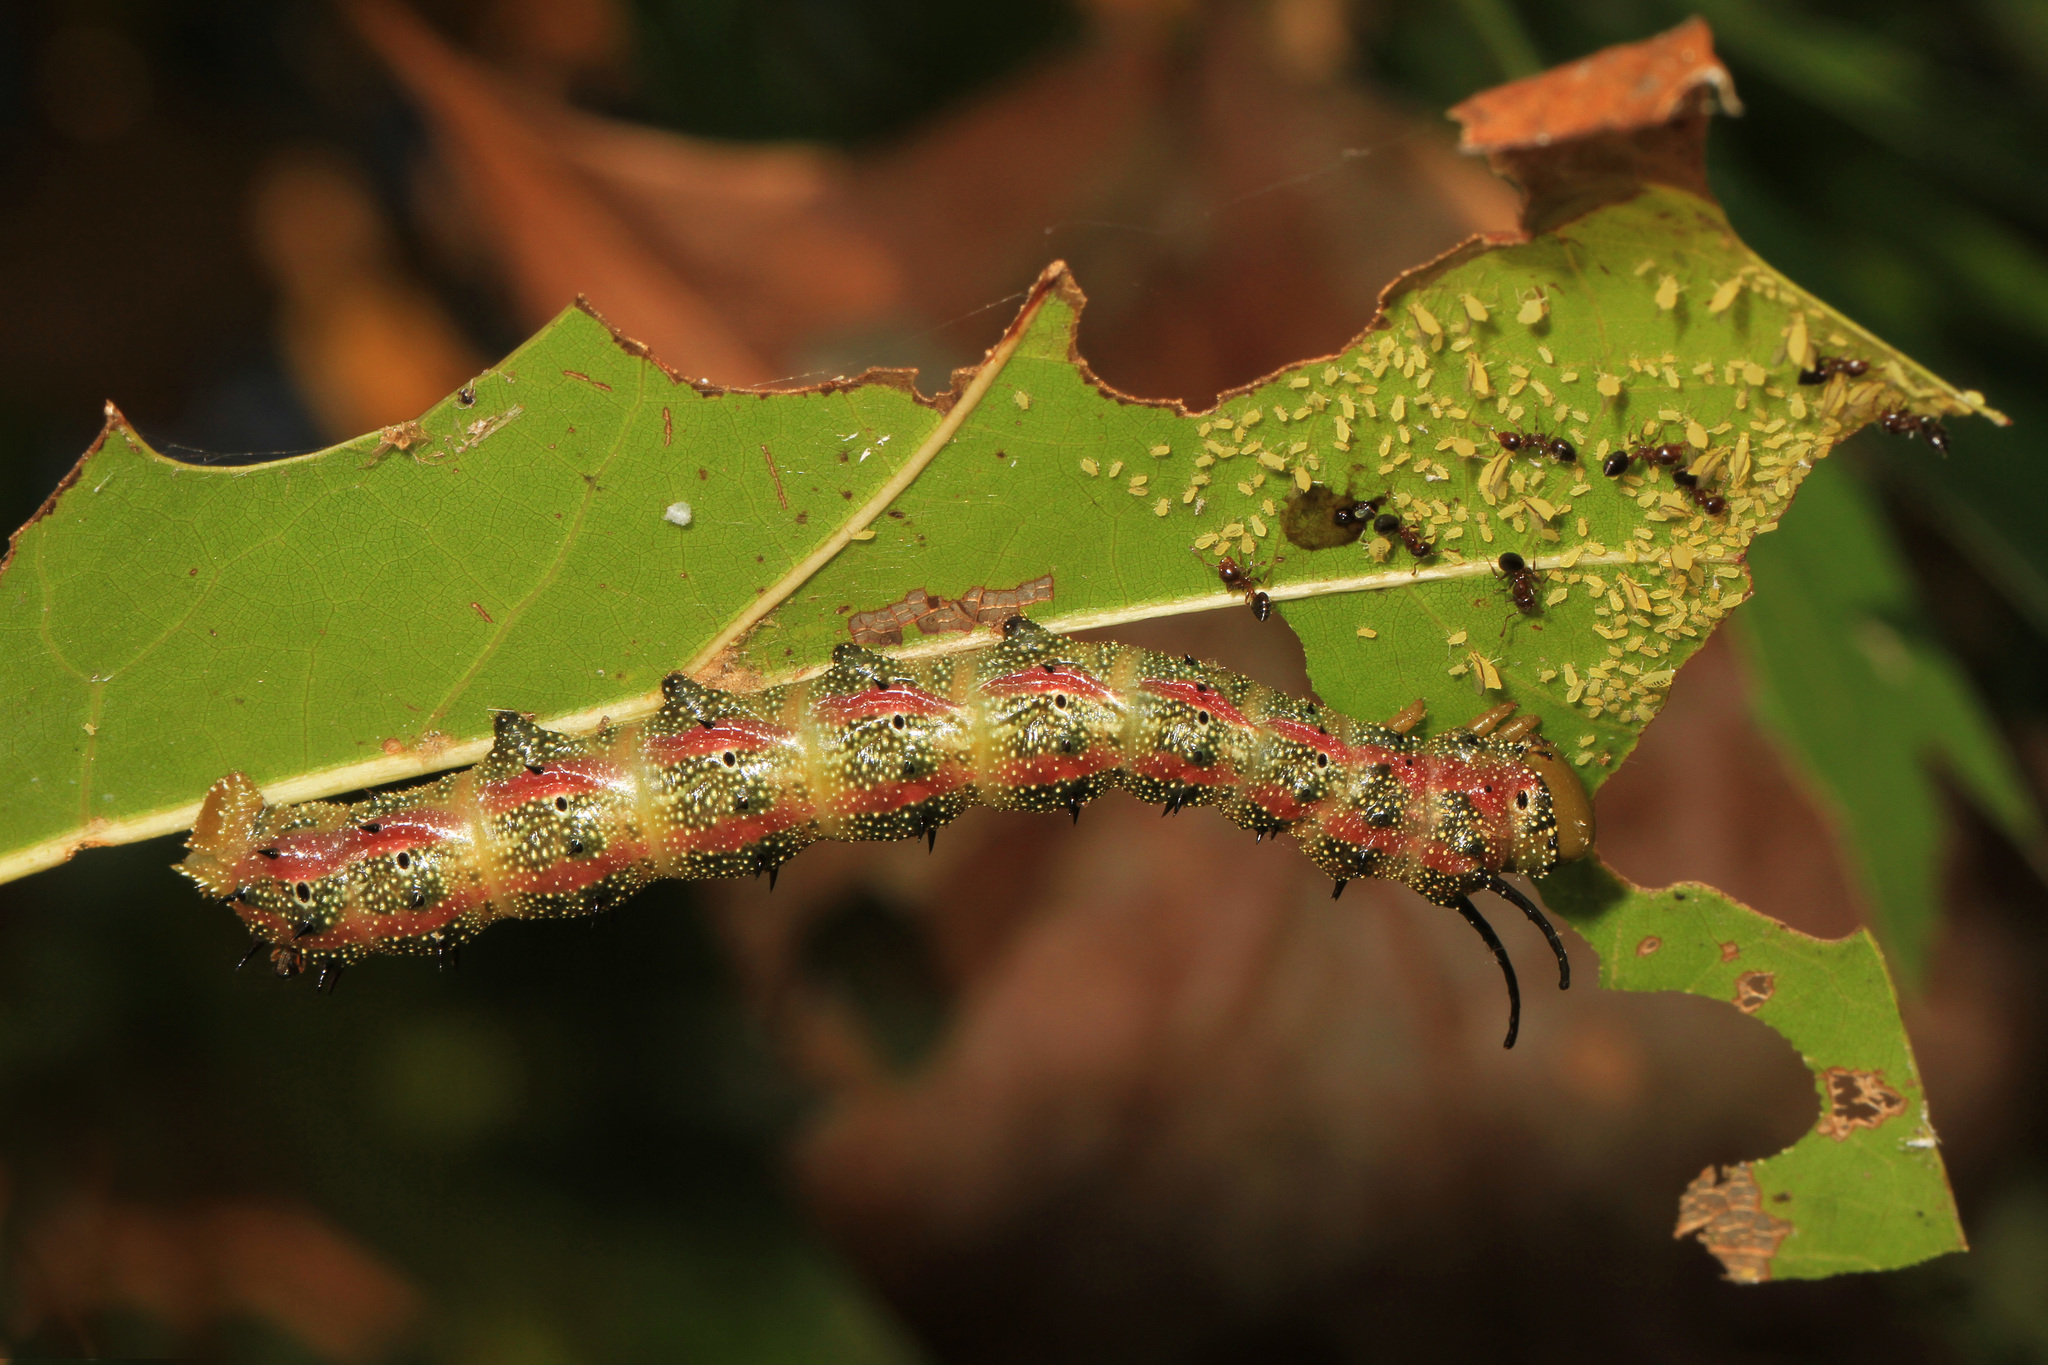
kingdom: Animalia
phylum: Arthropoda
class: Insecta
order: Lepidoptera
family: Saturniidae
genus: Anisota
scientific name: Anisota virginiensis
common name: Pink striped oakworm moth
